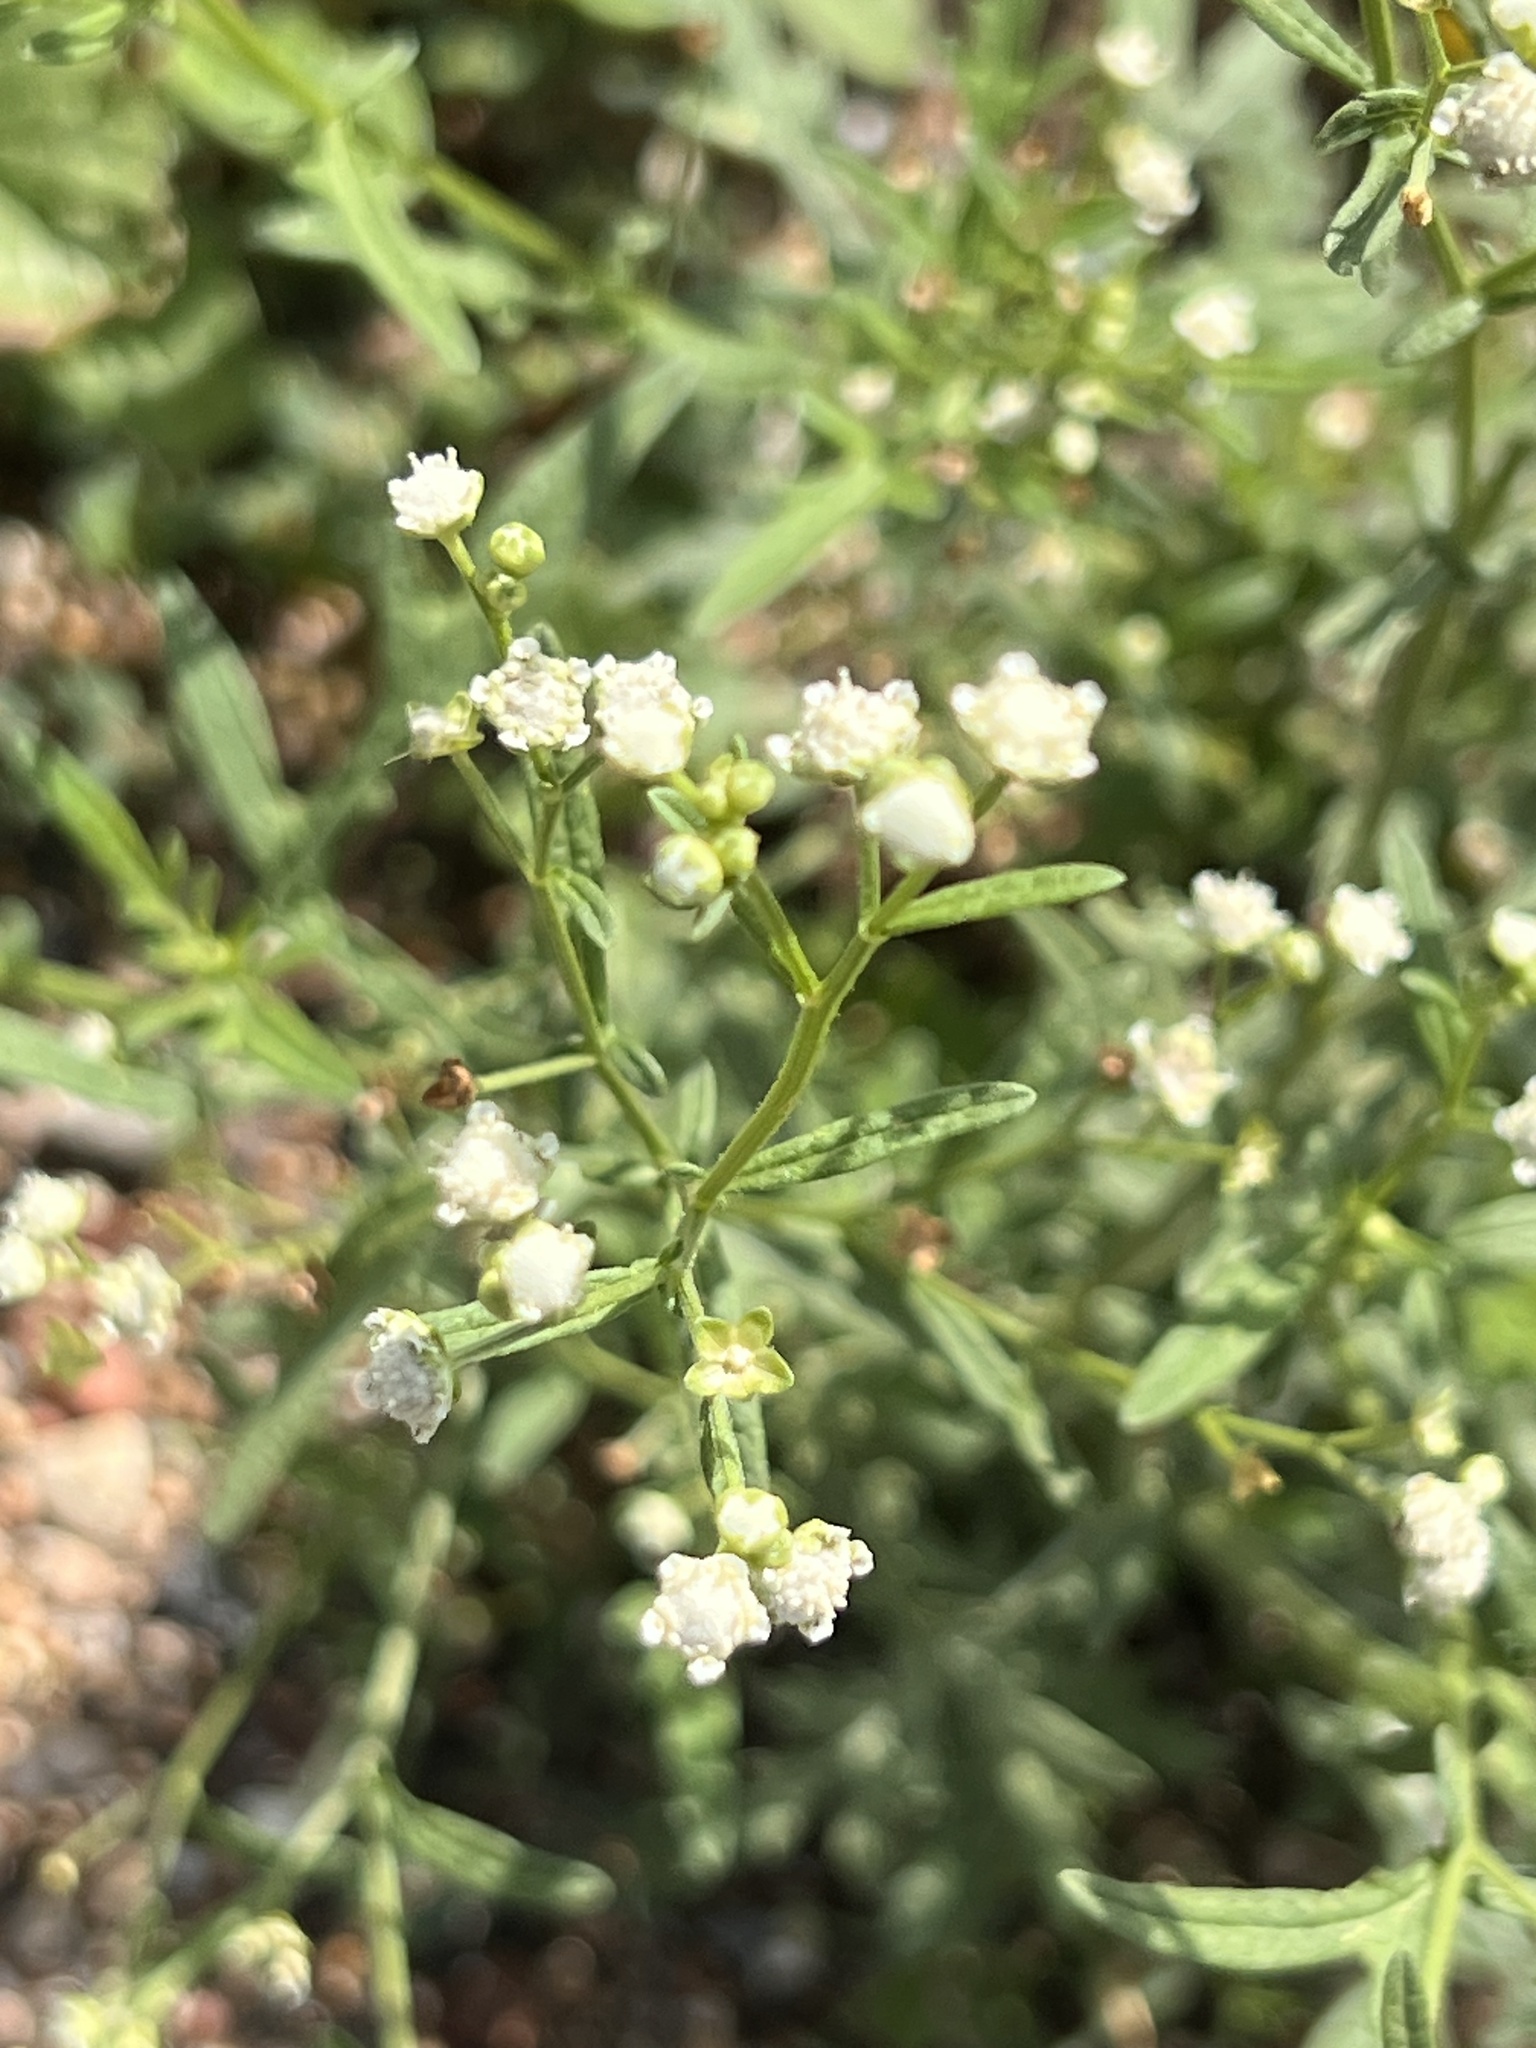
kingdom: Plantae
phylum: Tracheophyta
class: Magnoliopsida
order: Asterales
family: Asteraceae
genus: Parthenium
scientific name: Parthenium hysterophorus
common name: Santa maria feverfew
